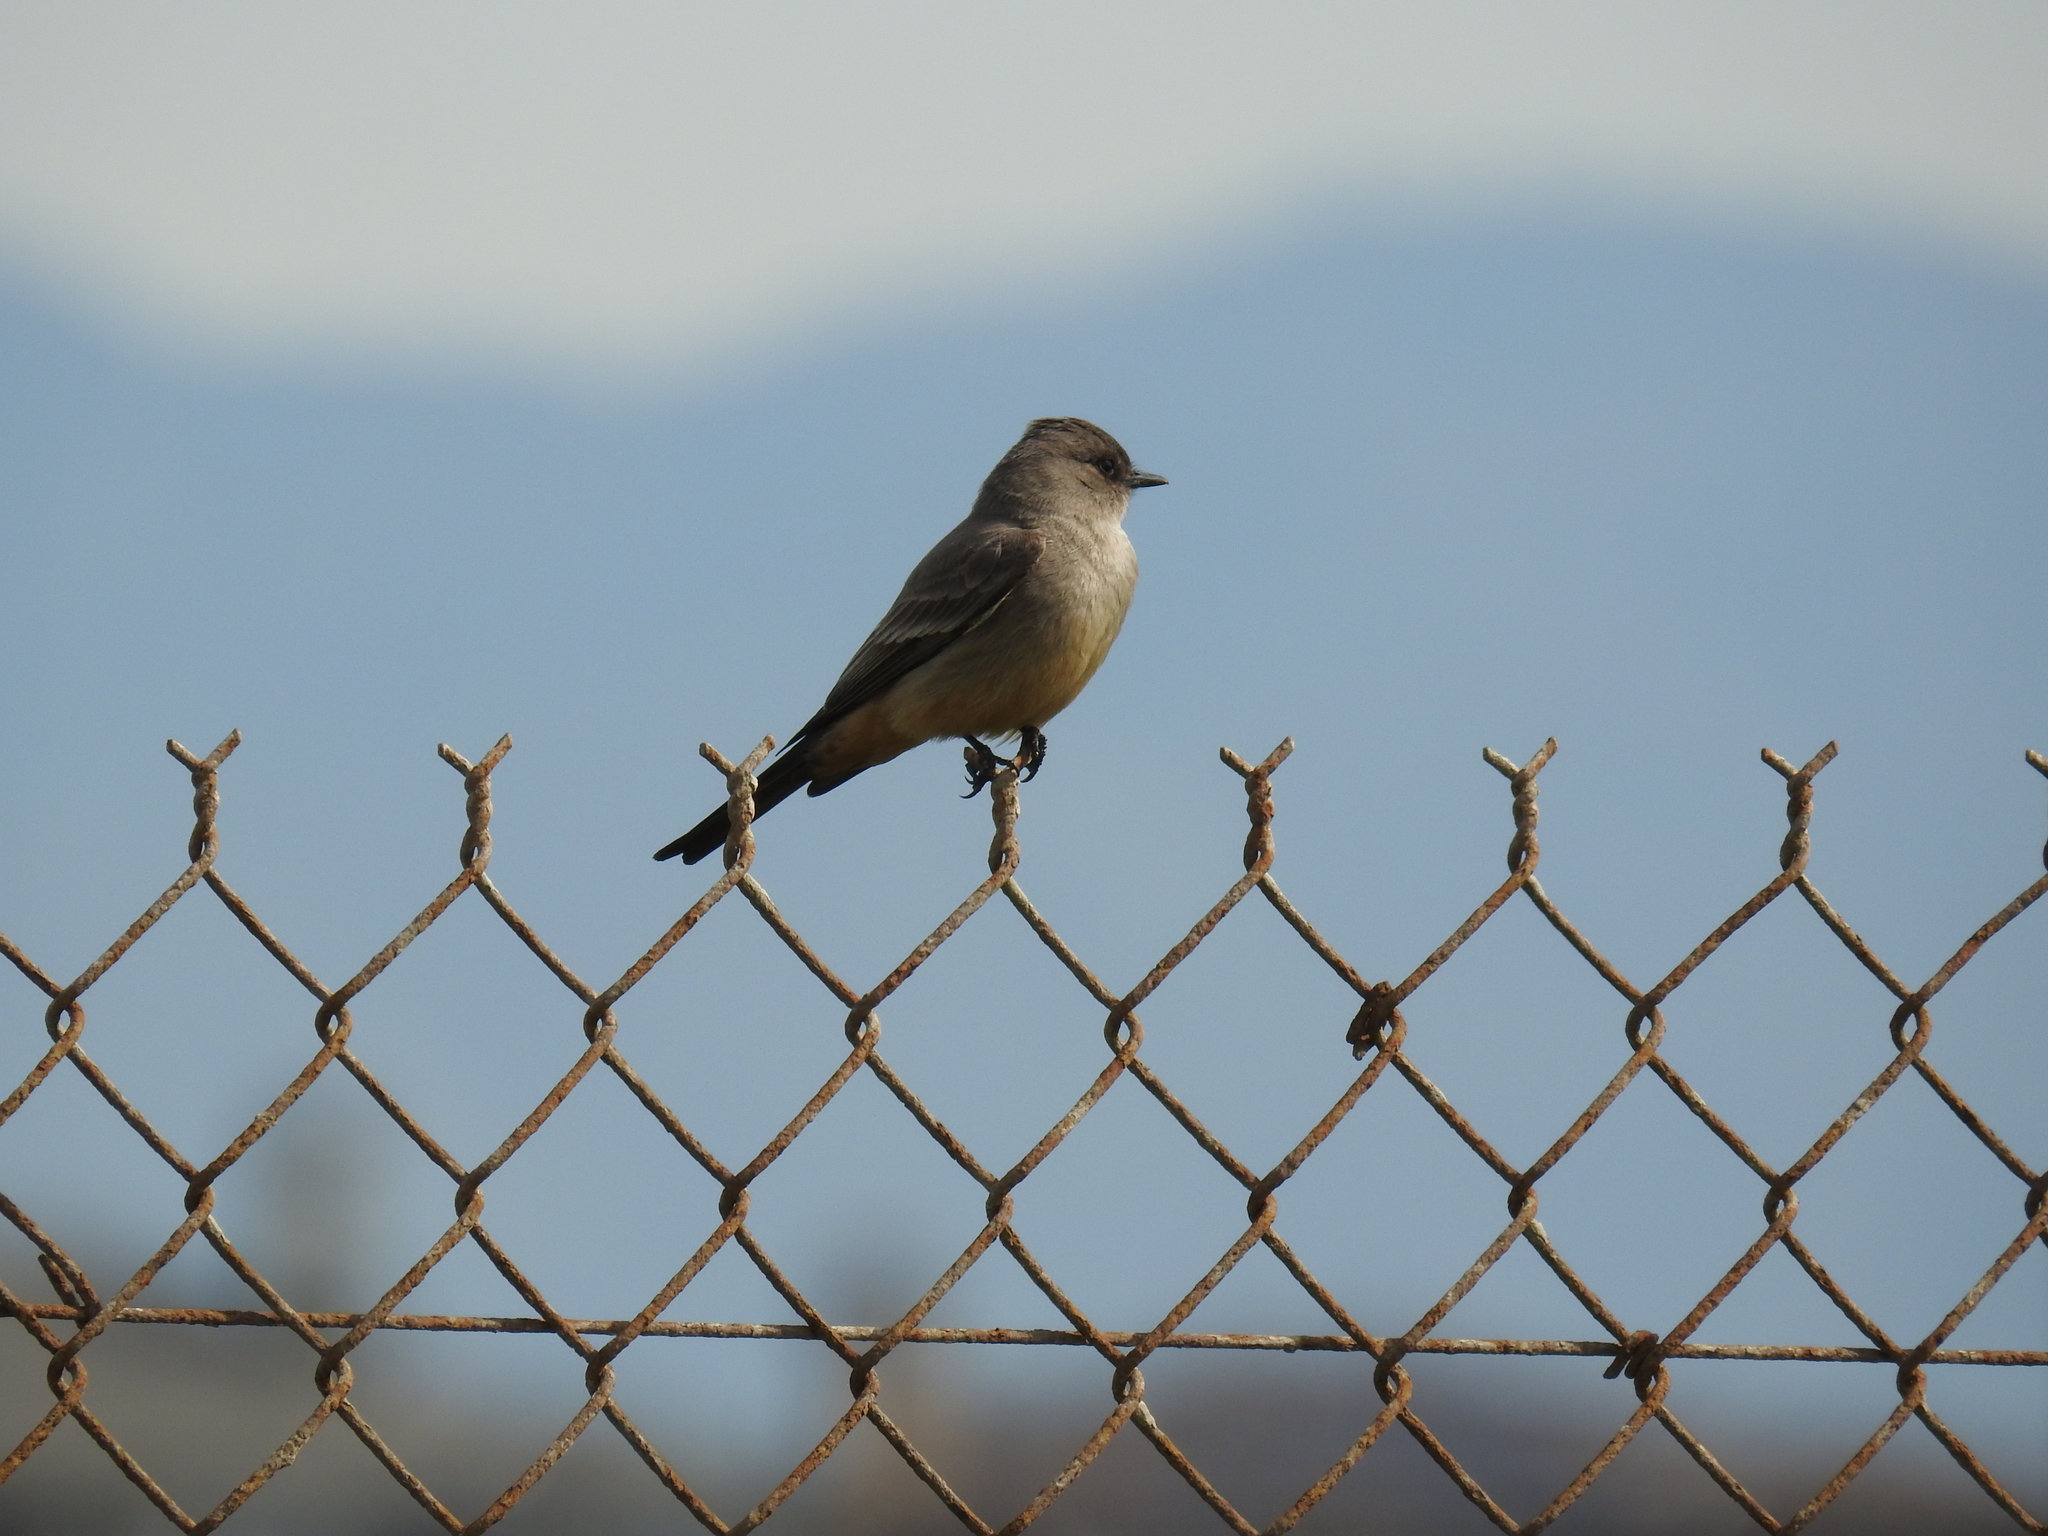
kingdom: Animalia
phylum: Chordata
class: Aves
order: Passeriformes
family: Tyrannidae
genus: Sayornis
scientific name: Sayornis saya
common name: Say's phoebe
